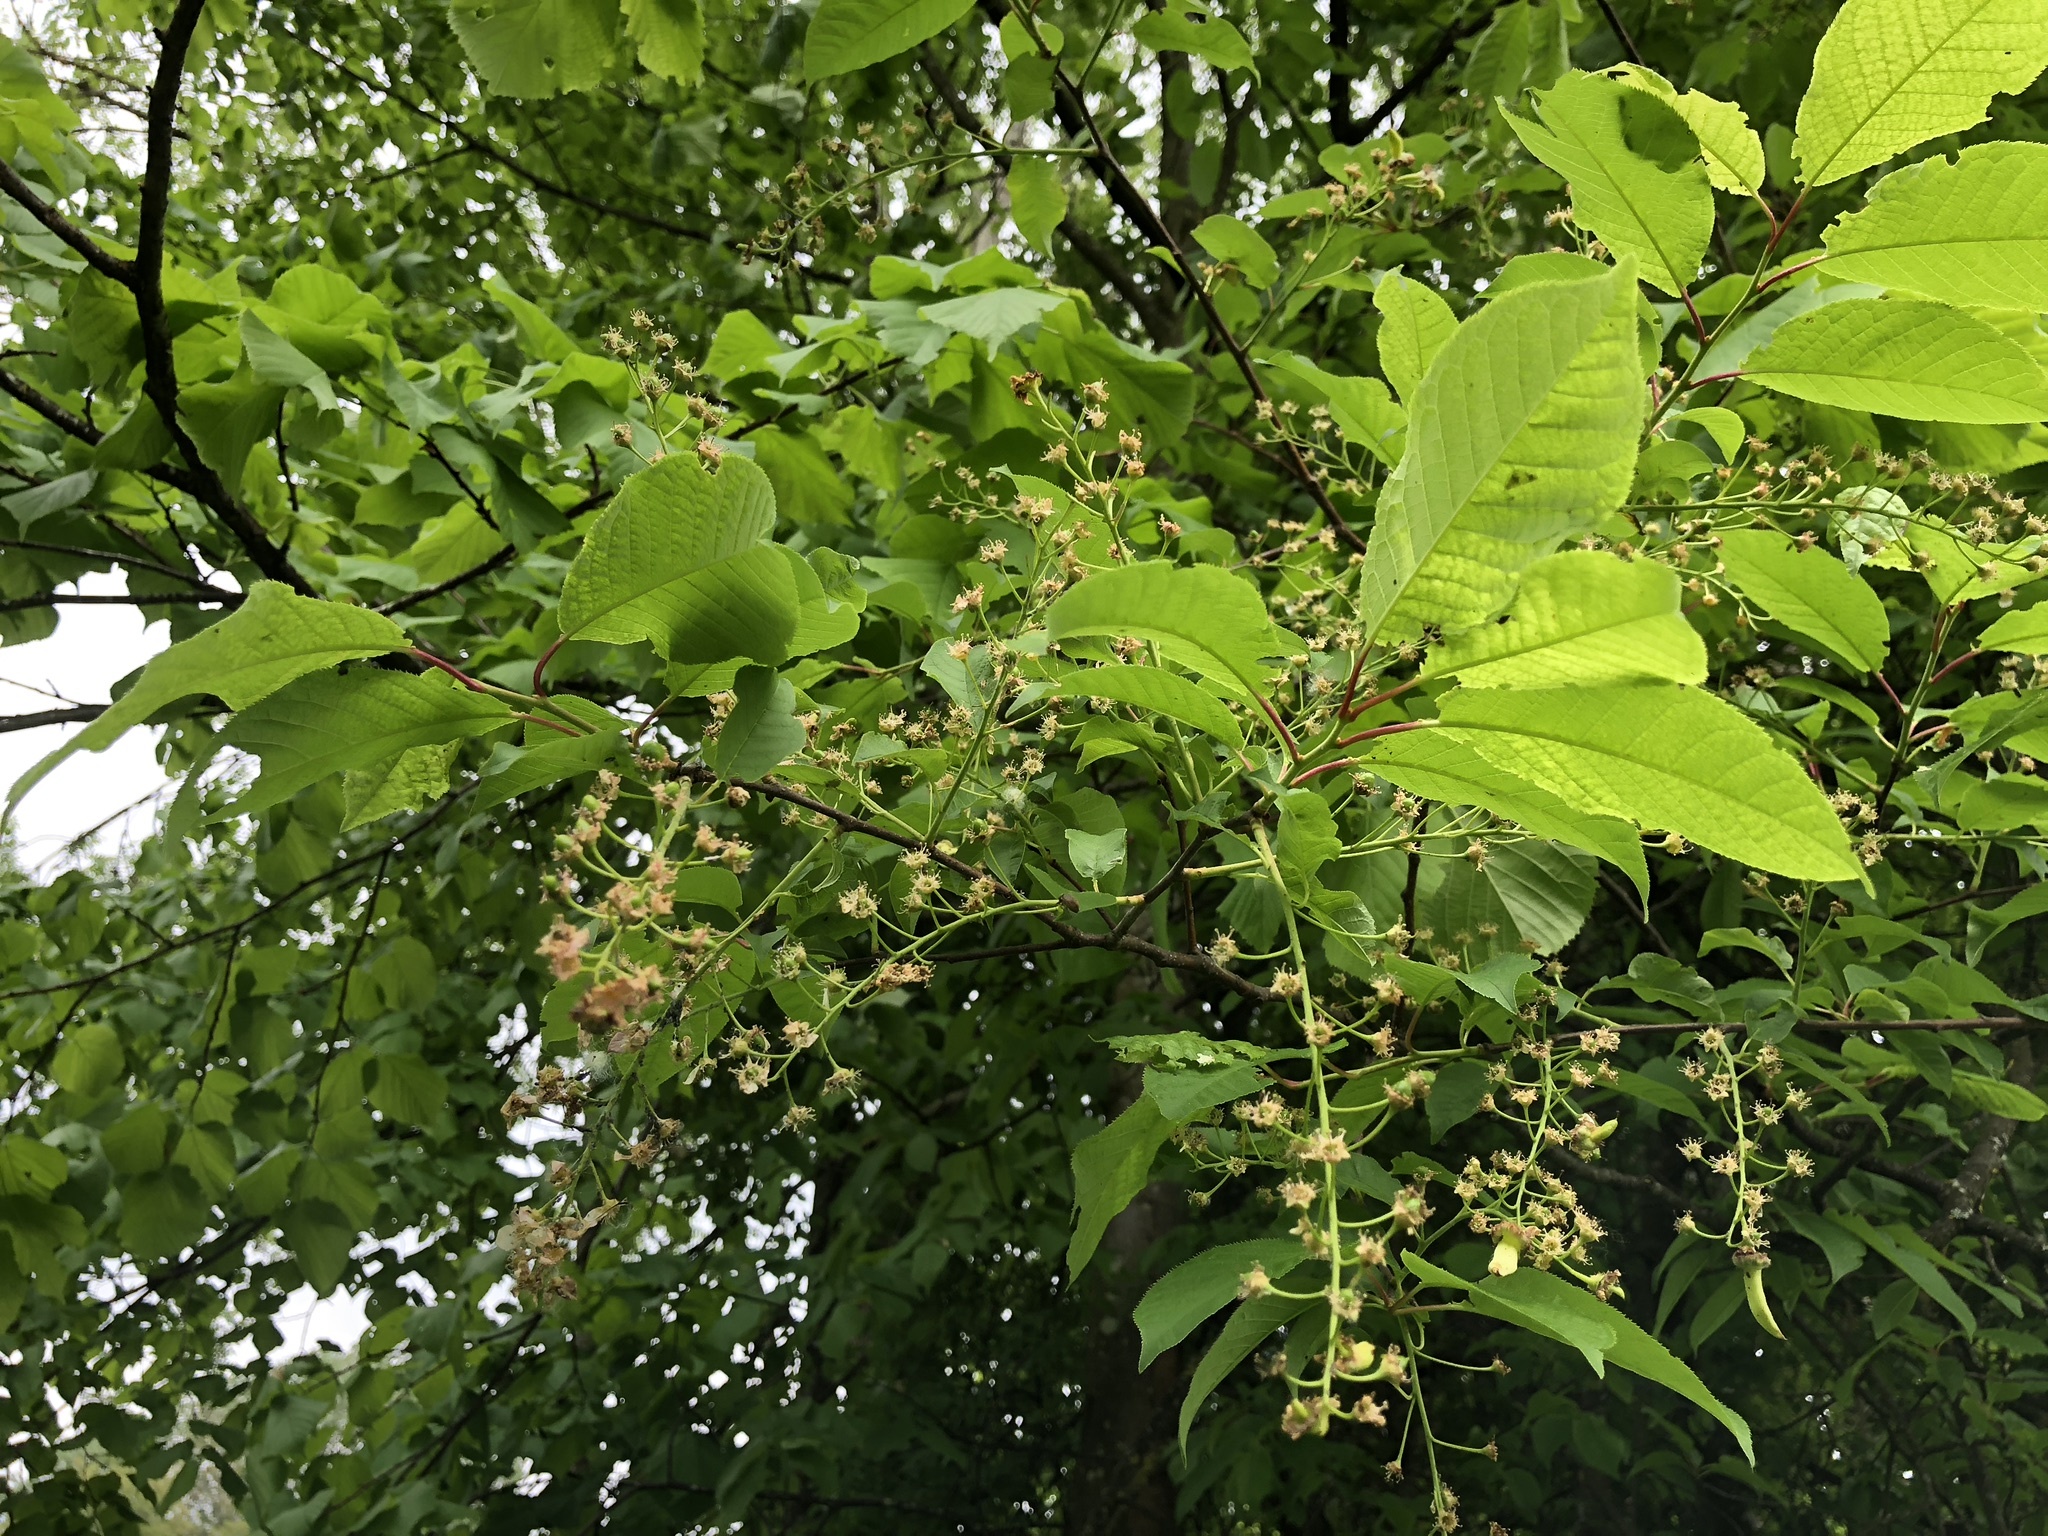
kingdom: Plantae
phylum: Tracheophyta
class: Magnoliopsida
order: Rosales
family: Rosaceae
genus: Prunus
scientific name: Prunus padus
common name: Bird cherry
